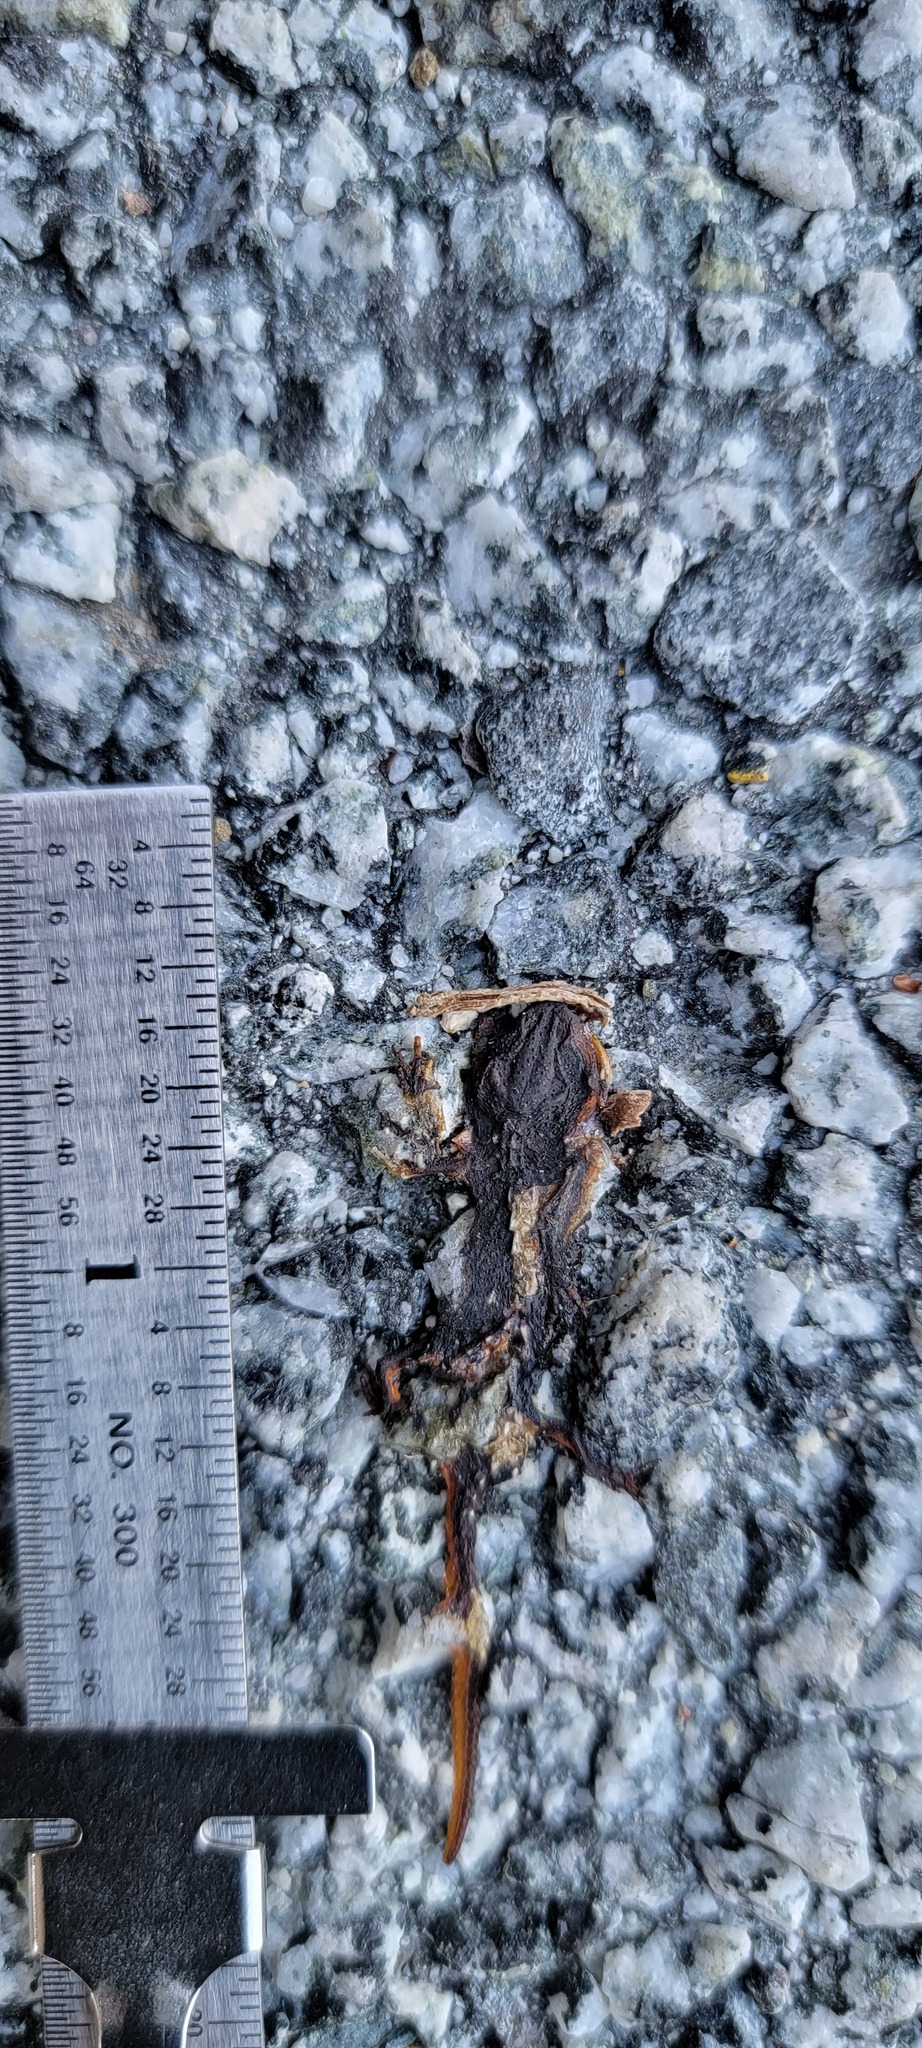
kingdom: Animalia
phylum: Chordata
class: Amphibia
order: Caudata
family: Salamandridae
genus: Taricha
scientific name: Taricha
